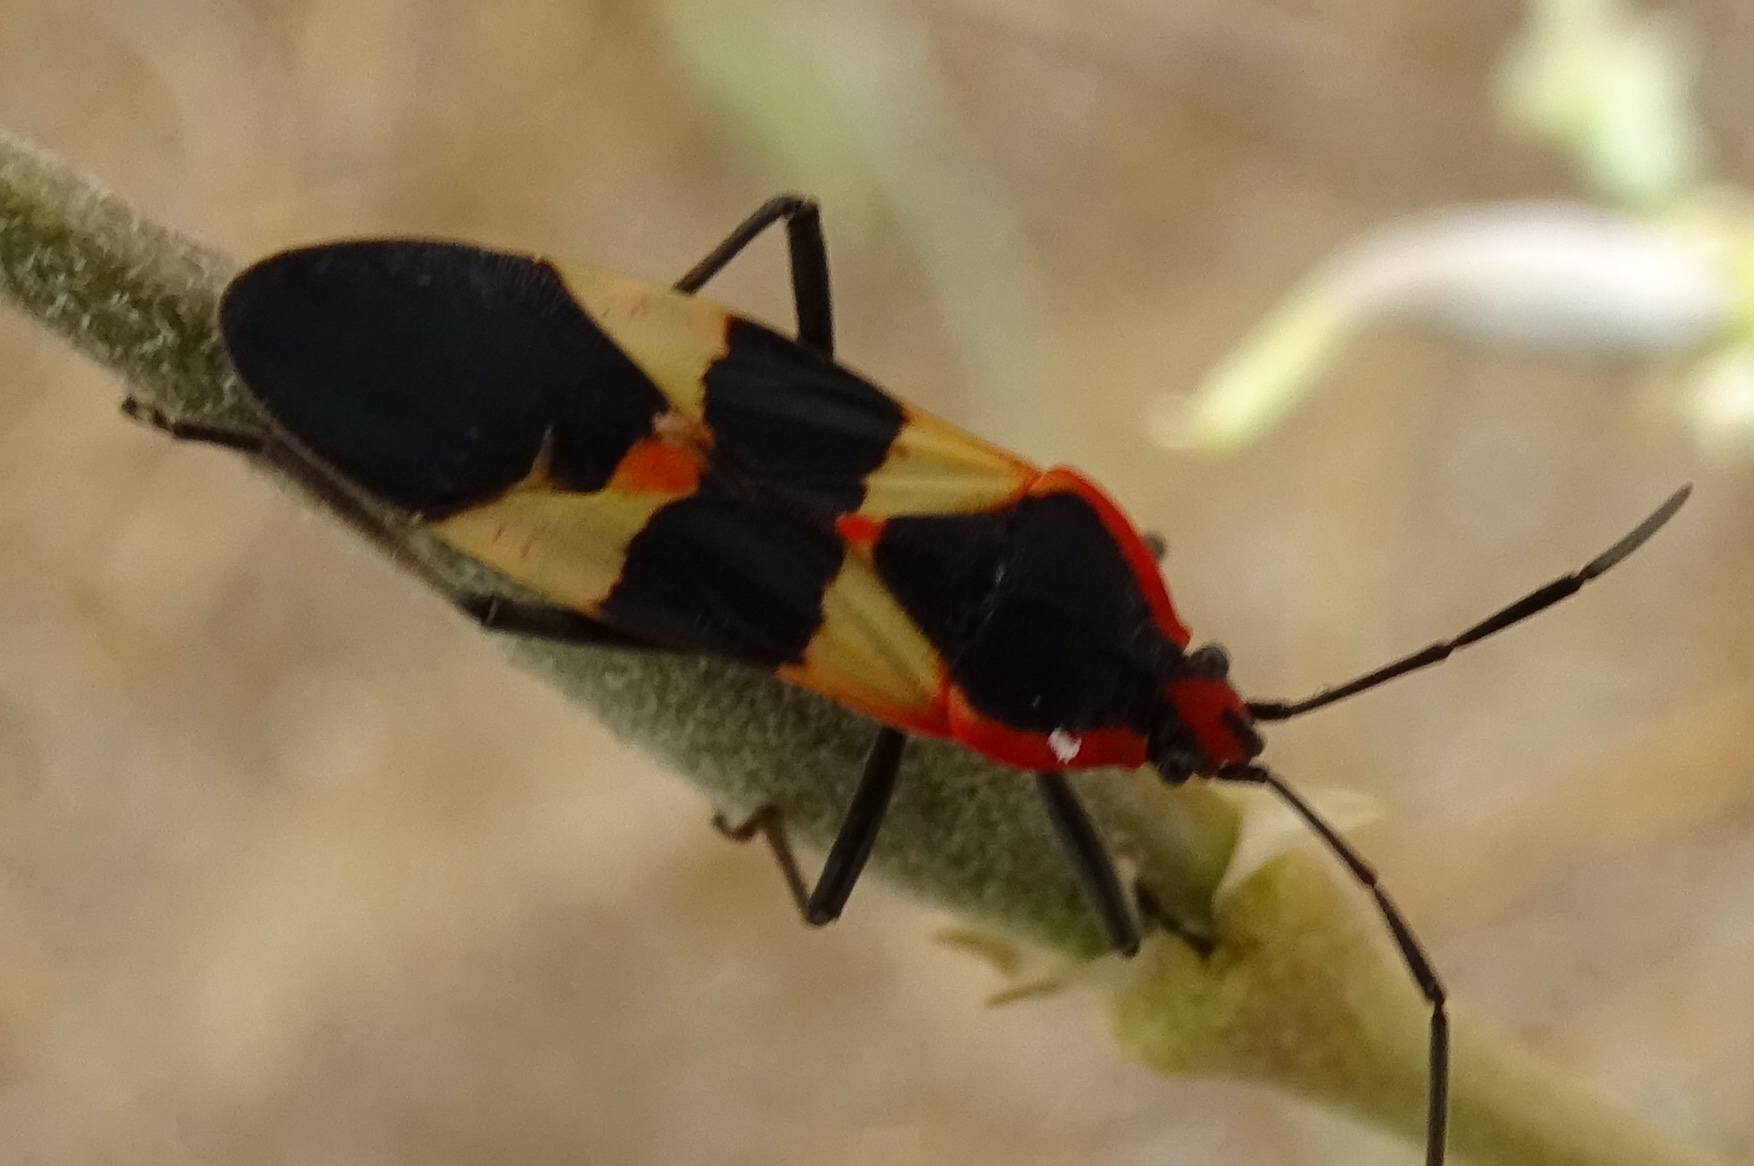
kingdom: Animalia
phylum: Arthropoda
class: Insecta
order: Hemiptera
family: Lygaeidae
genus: Oncopeltus
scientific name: Oncopeltus fasciatus
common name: Large milkweed bug
